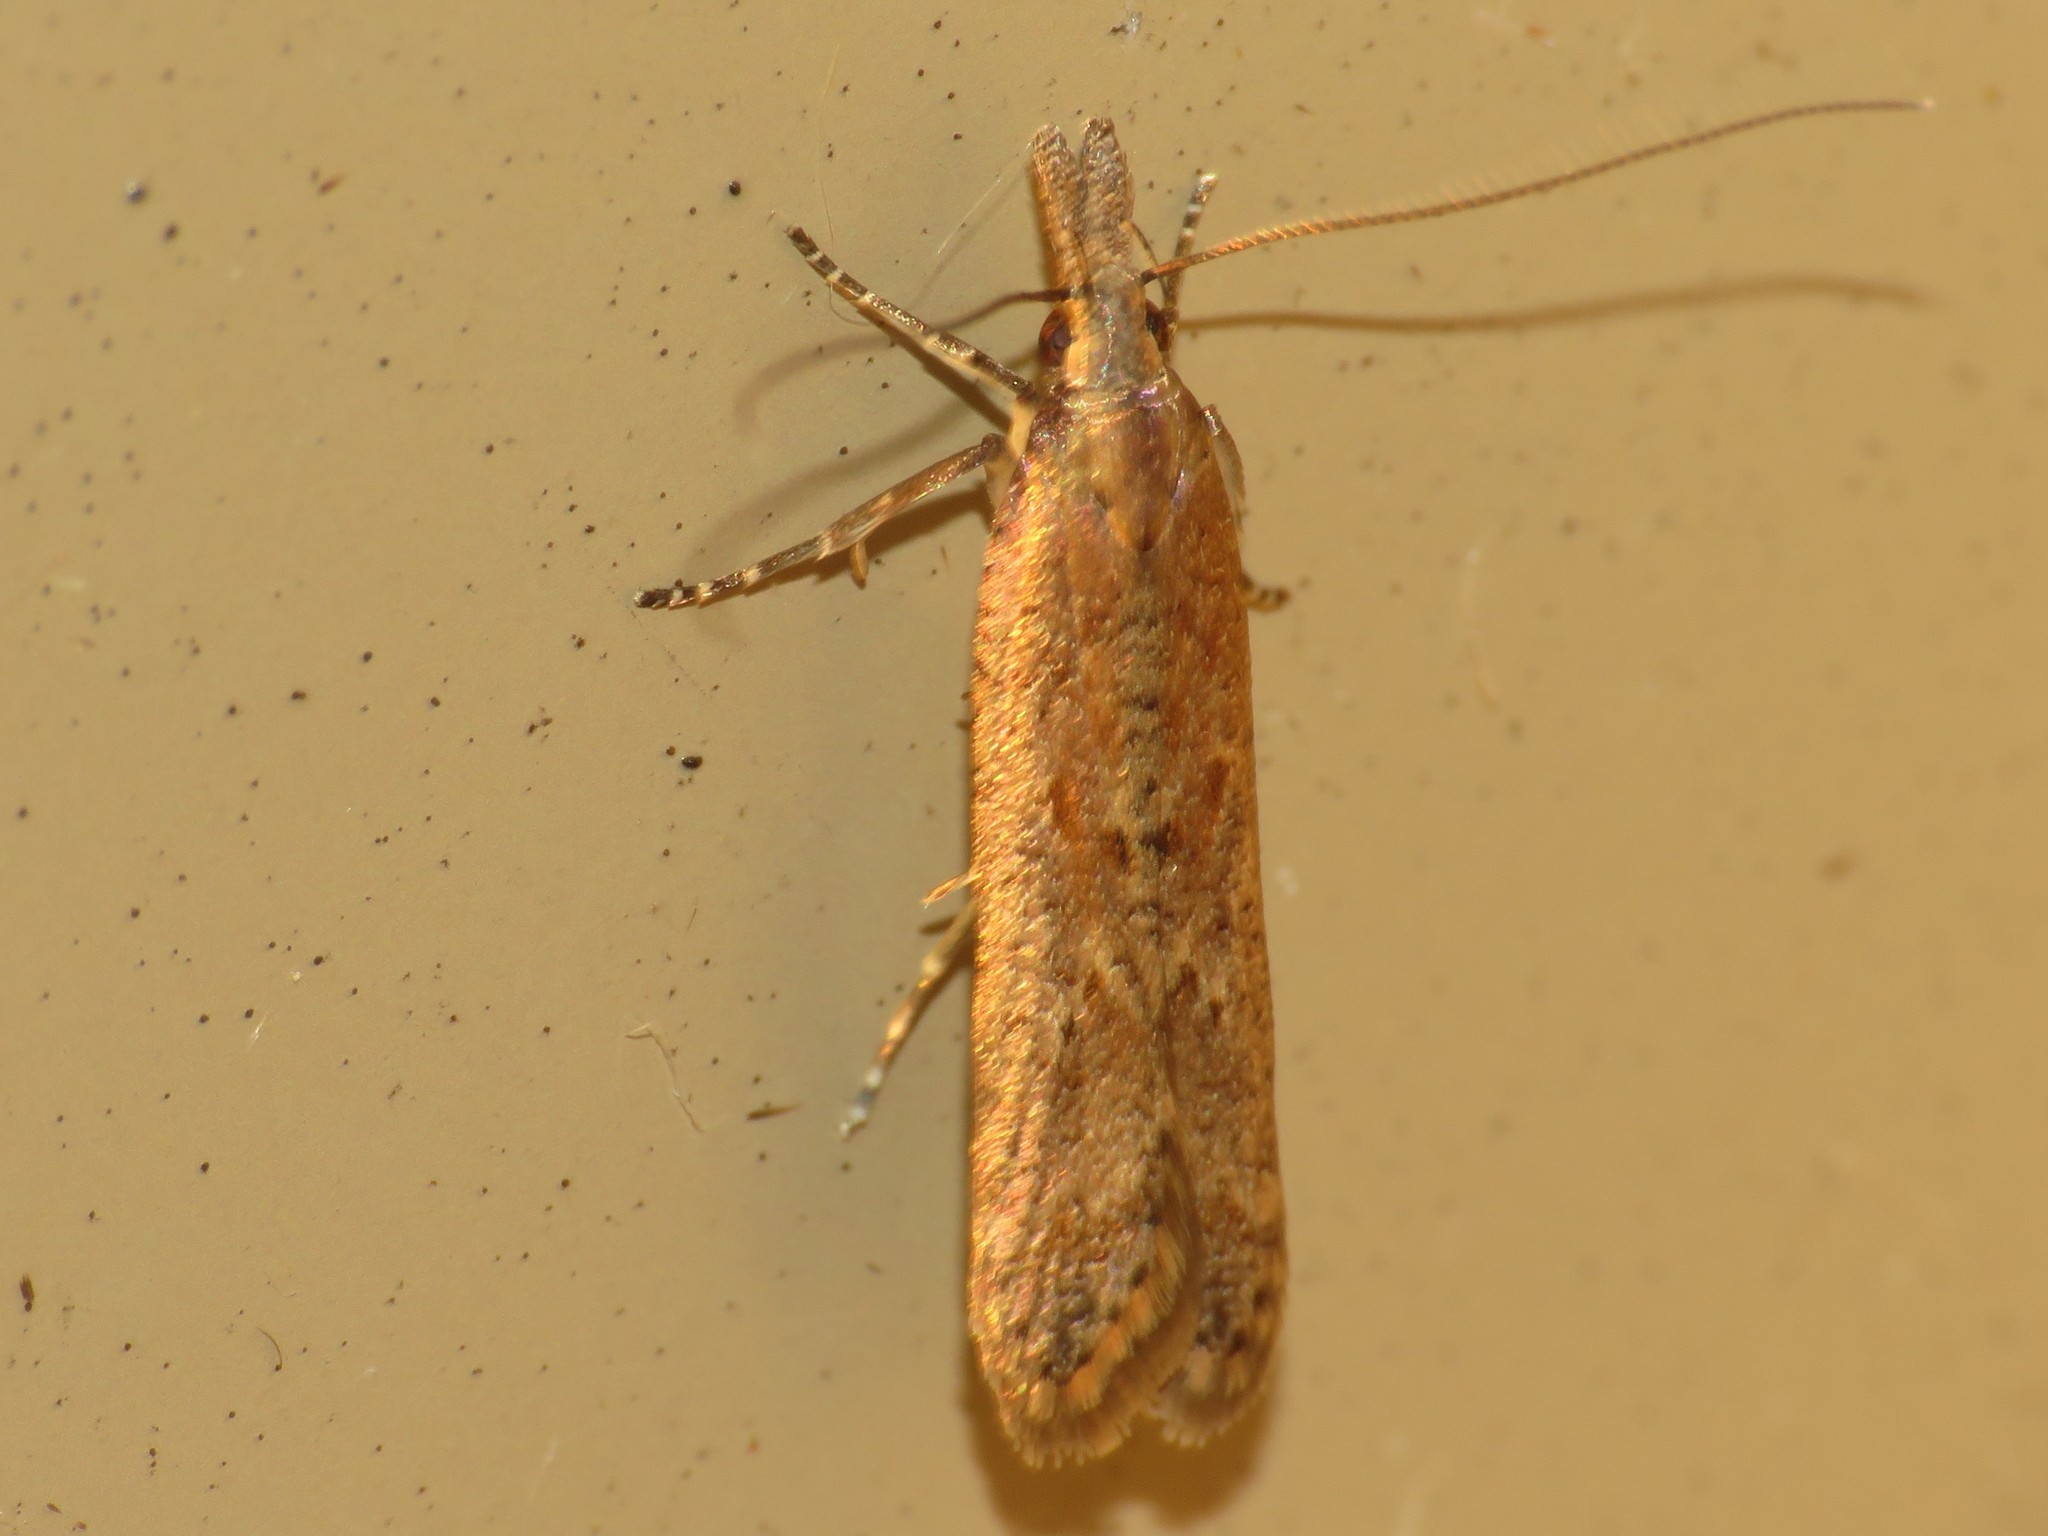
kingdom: Animalia
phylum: Arthropoda
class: Insecta
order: Lepidoptera
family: Gelechiidae
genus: Dichomeris
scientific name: Dichomeris ligulella
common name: Moth
